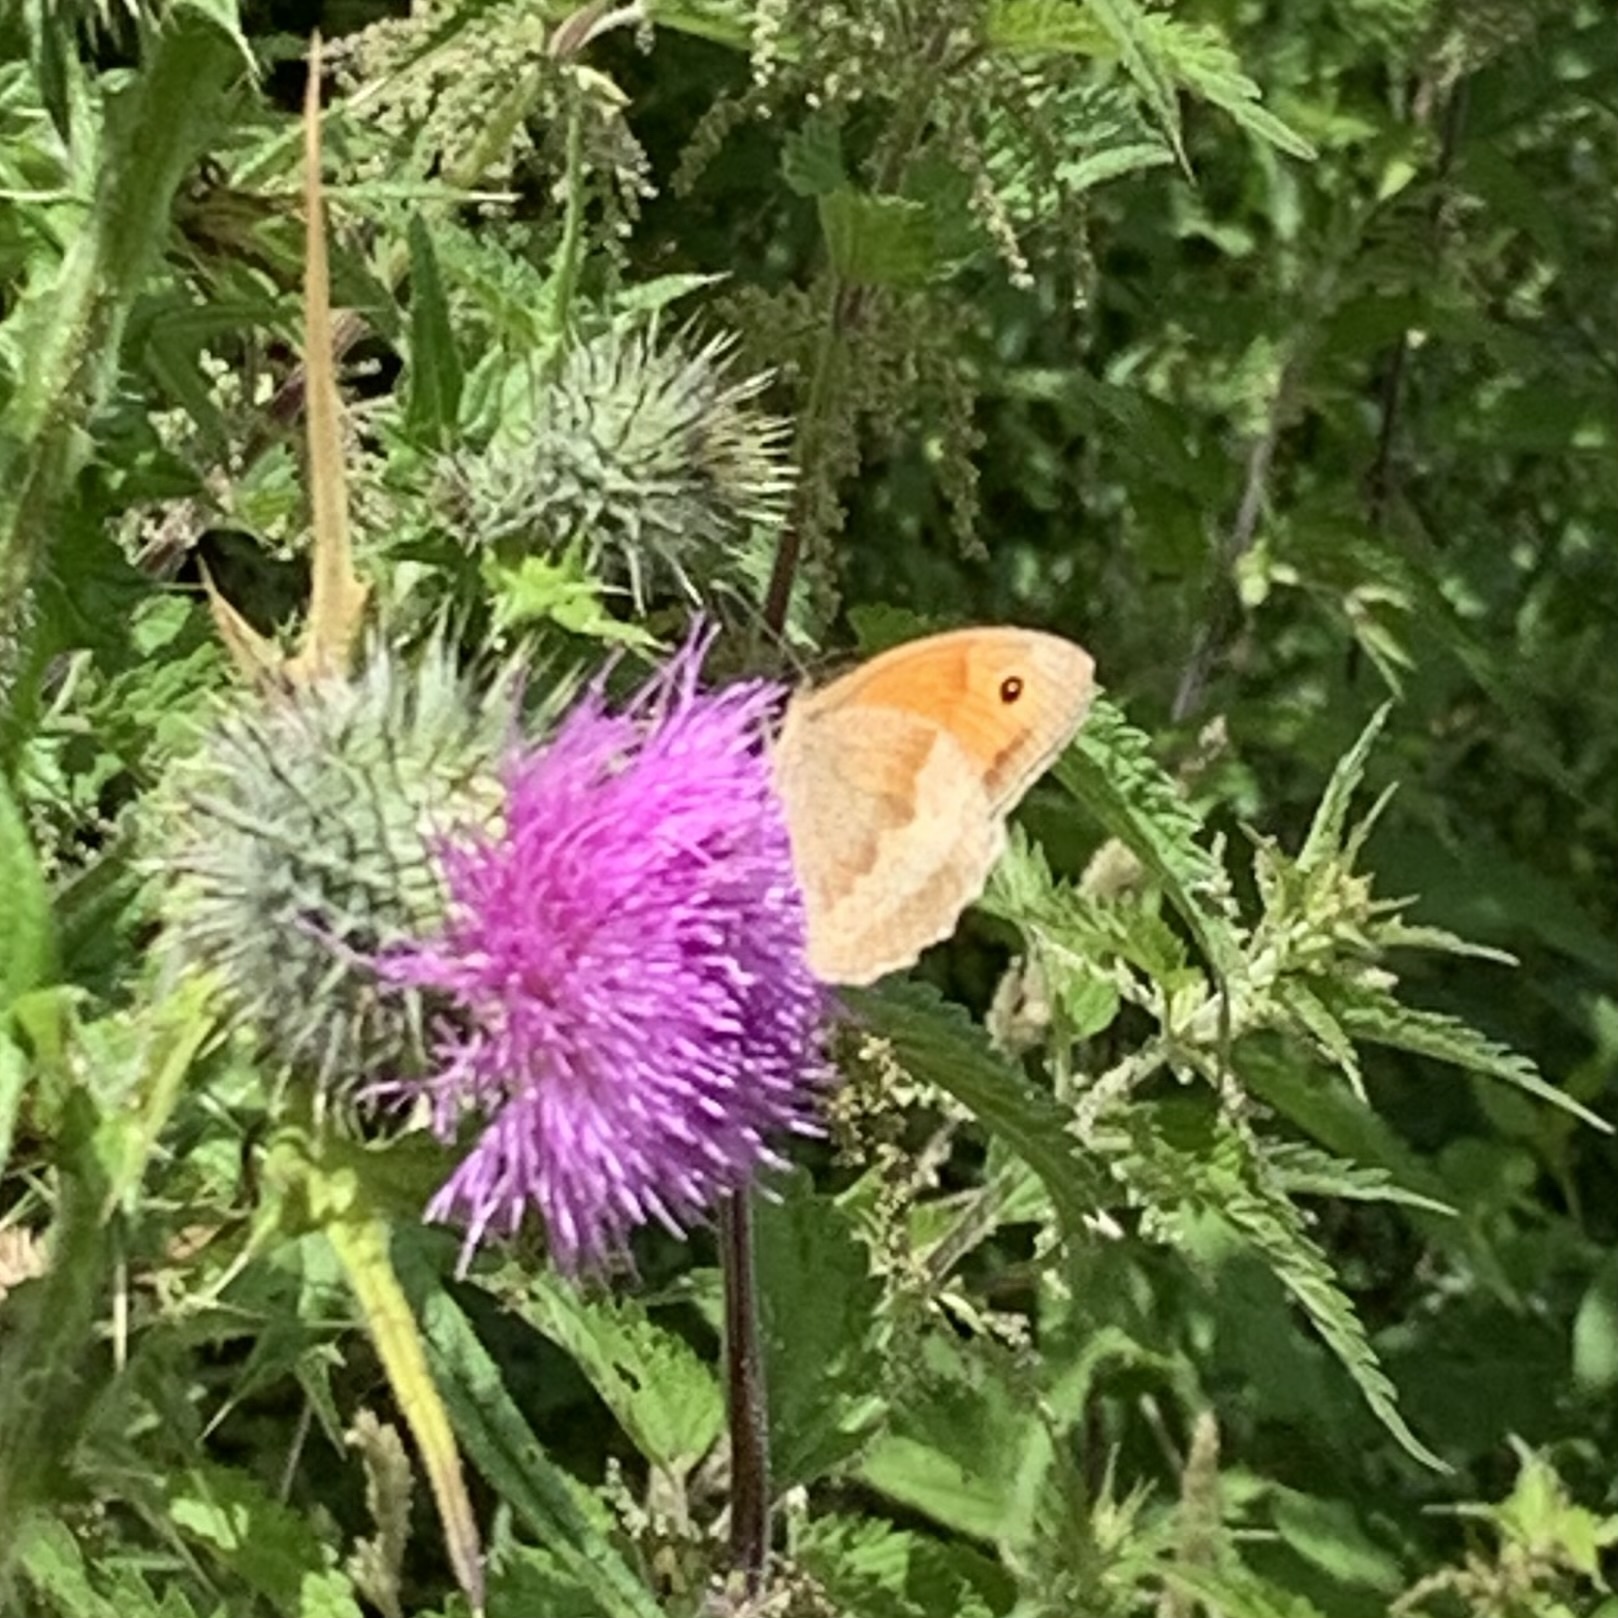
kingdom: Animalia
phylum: Arthropoda
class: Insecta
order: Lepidoptera
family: Nymphalidae
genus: Maniola
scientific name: Maniola jurtina
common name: Meadow brown
